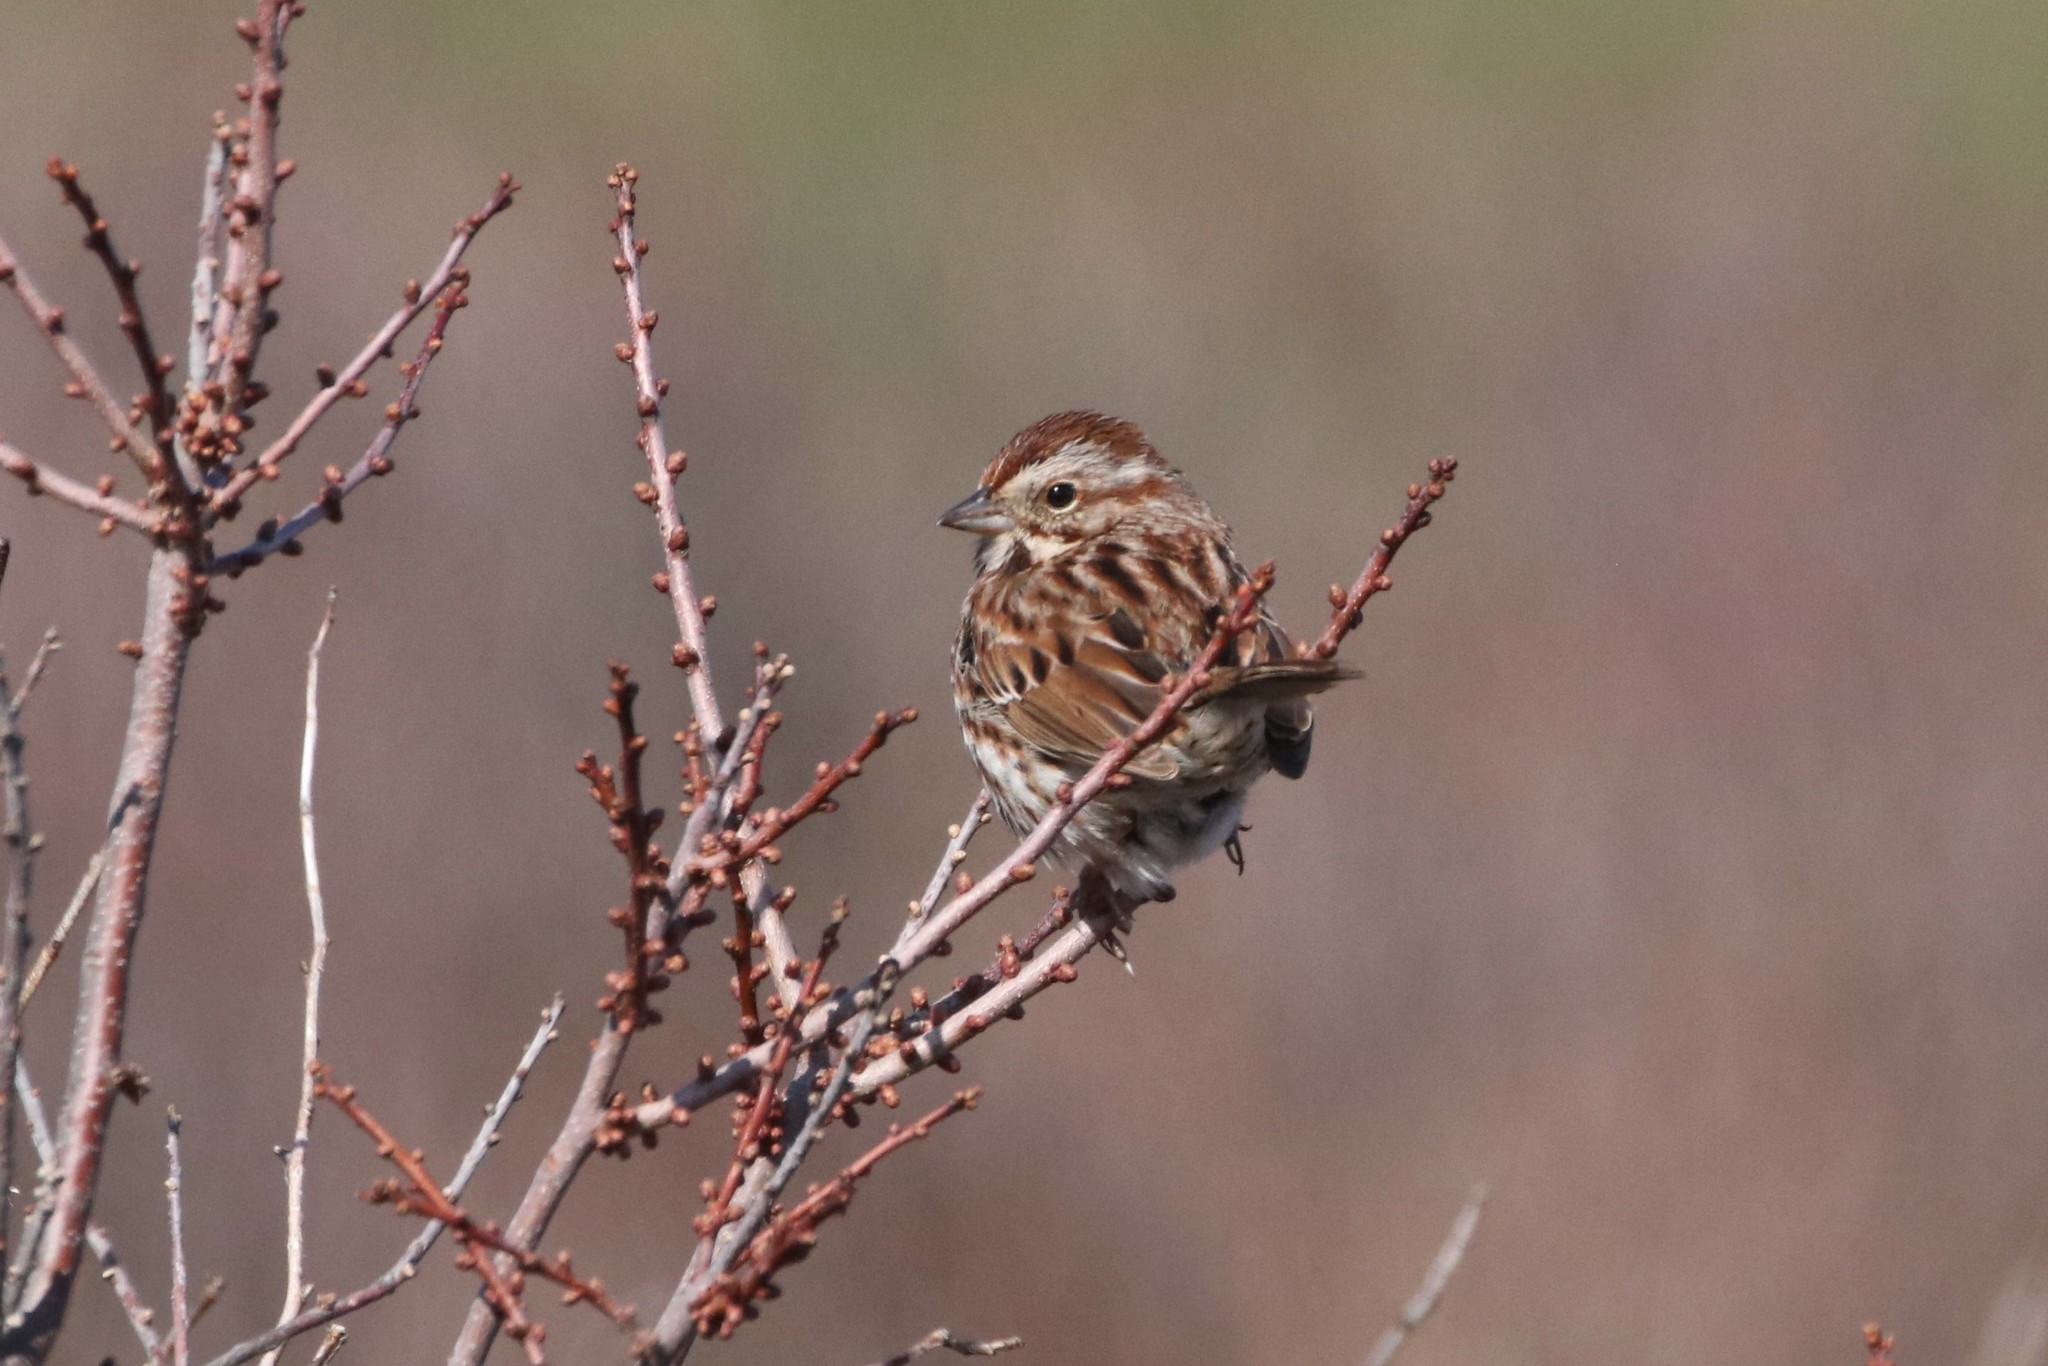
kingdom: Animalia
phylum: Chordata
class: Aves
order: Passeriformes
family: Passerellidae
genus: Melospiza
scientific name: Melospiza melodia
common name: Song sparrow
